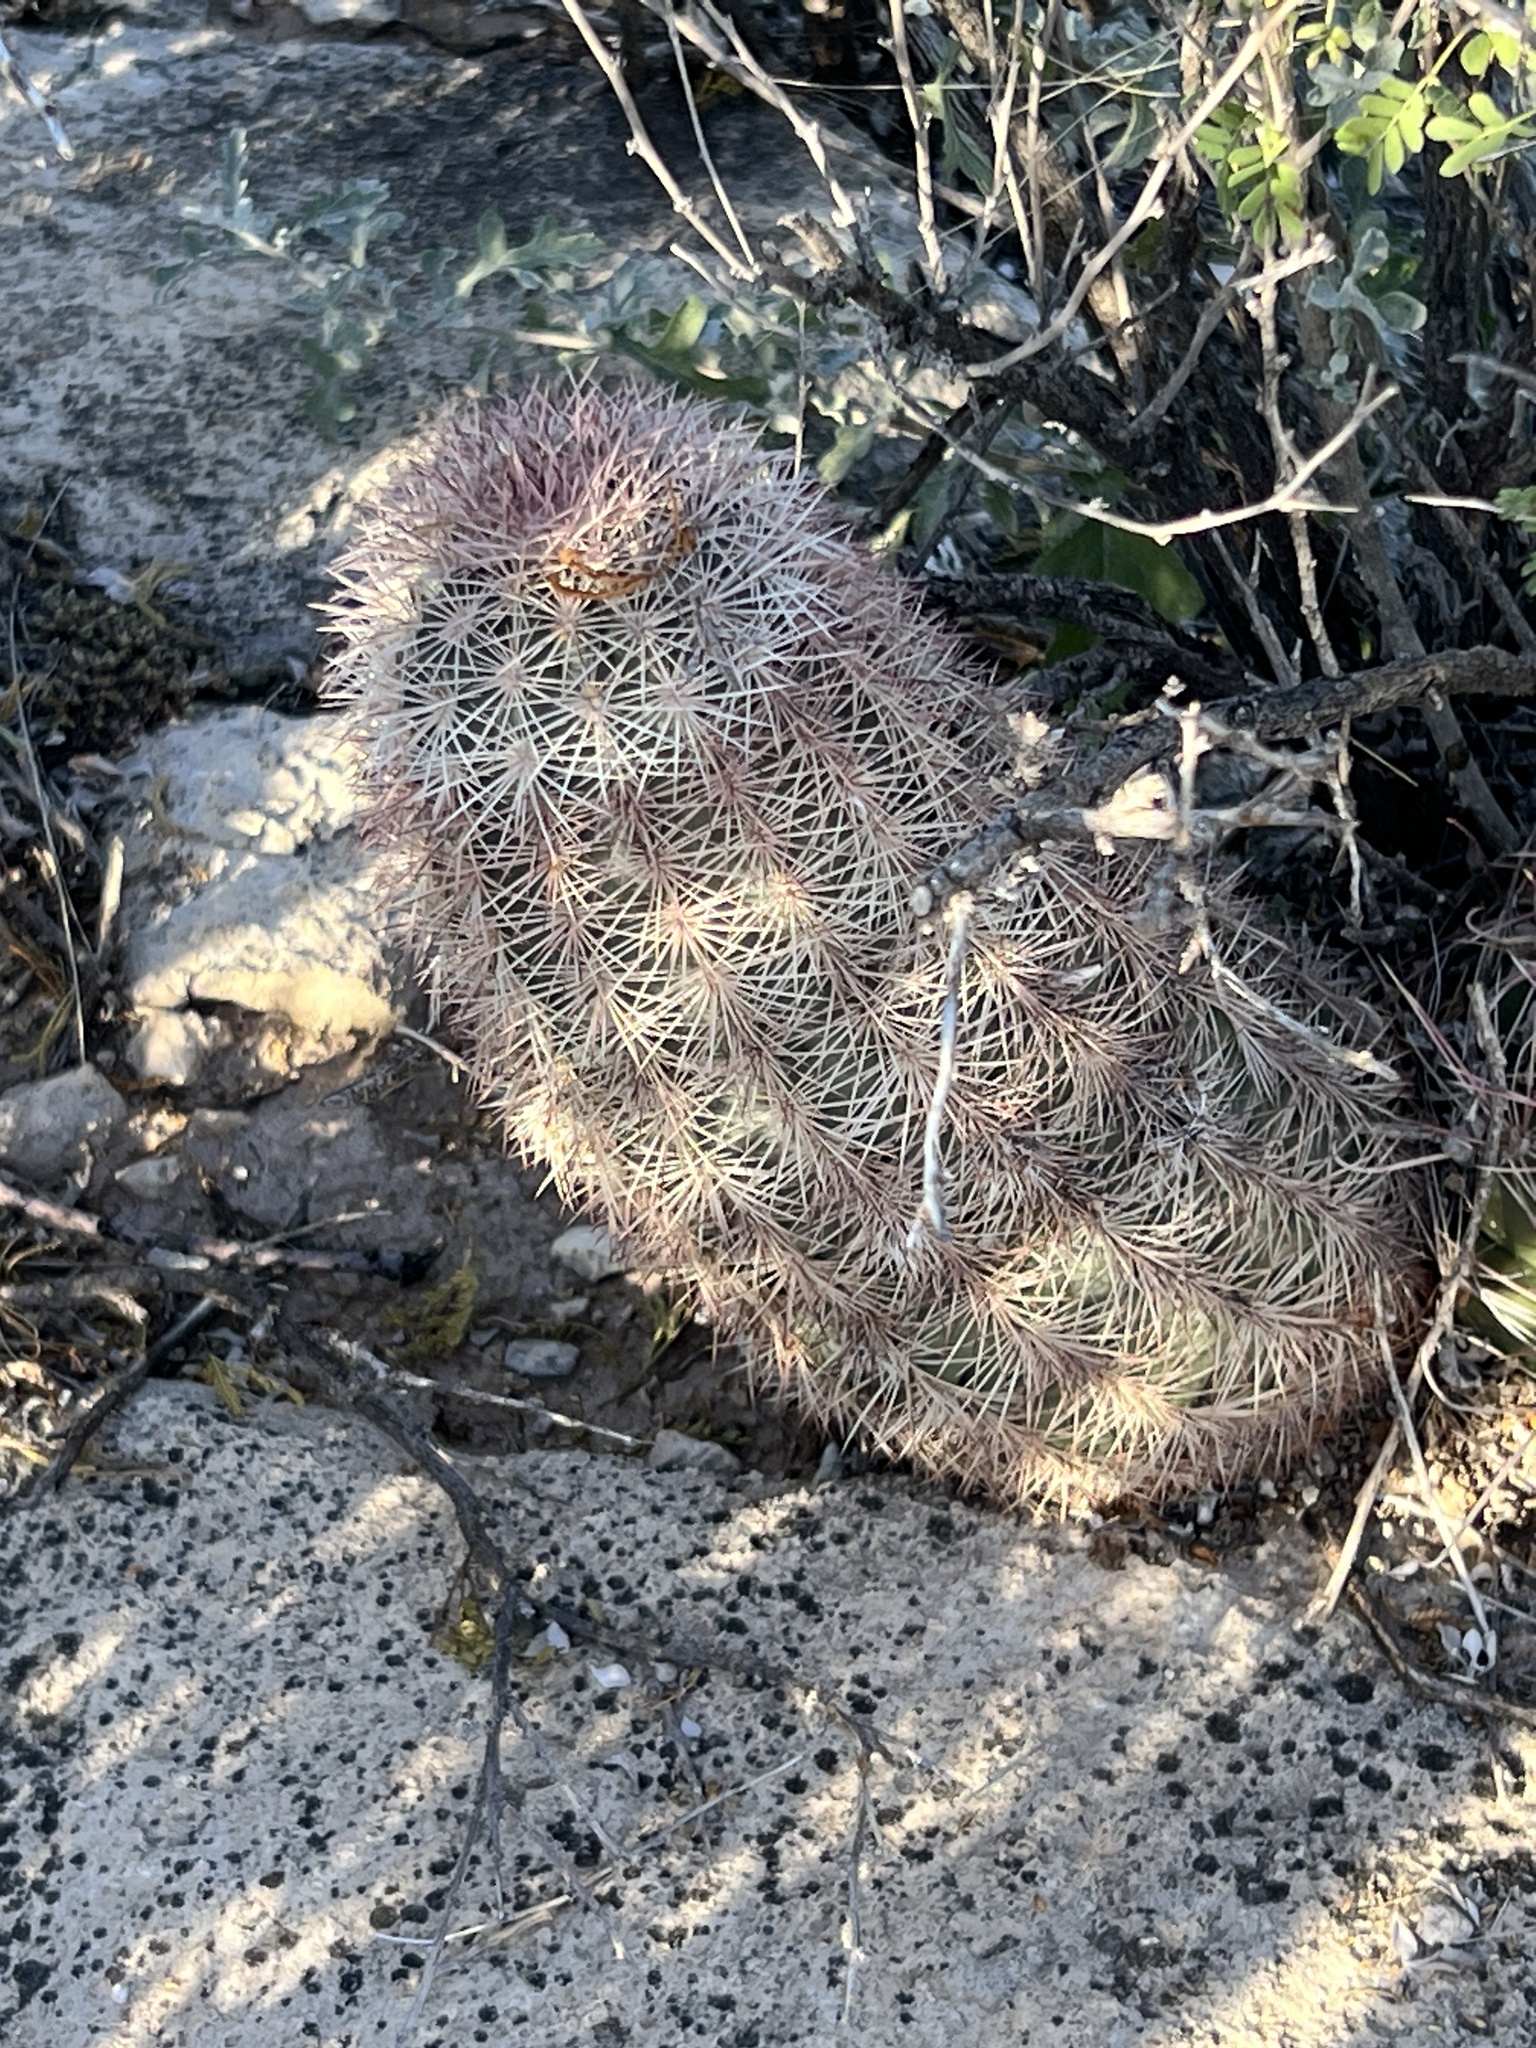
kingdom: Plantae
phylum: Tracheophyta
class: Magnoliopsida
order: Caryophyllales
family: Cactaceae
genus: Echinocereus
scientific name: Echinocereus dasyacanthus
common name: Spiny hedgehog cactus
